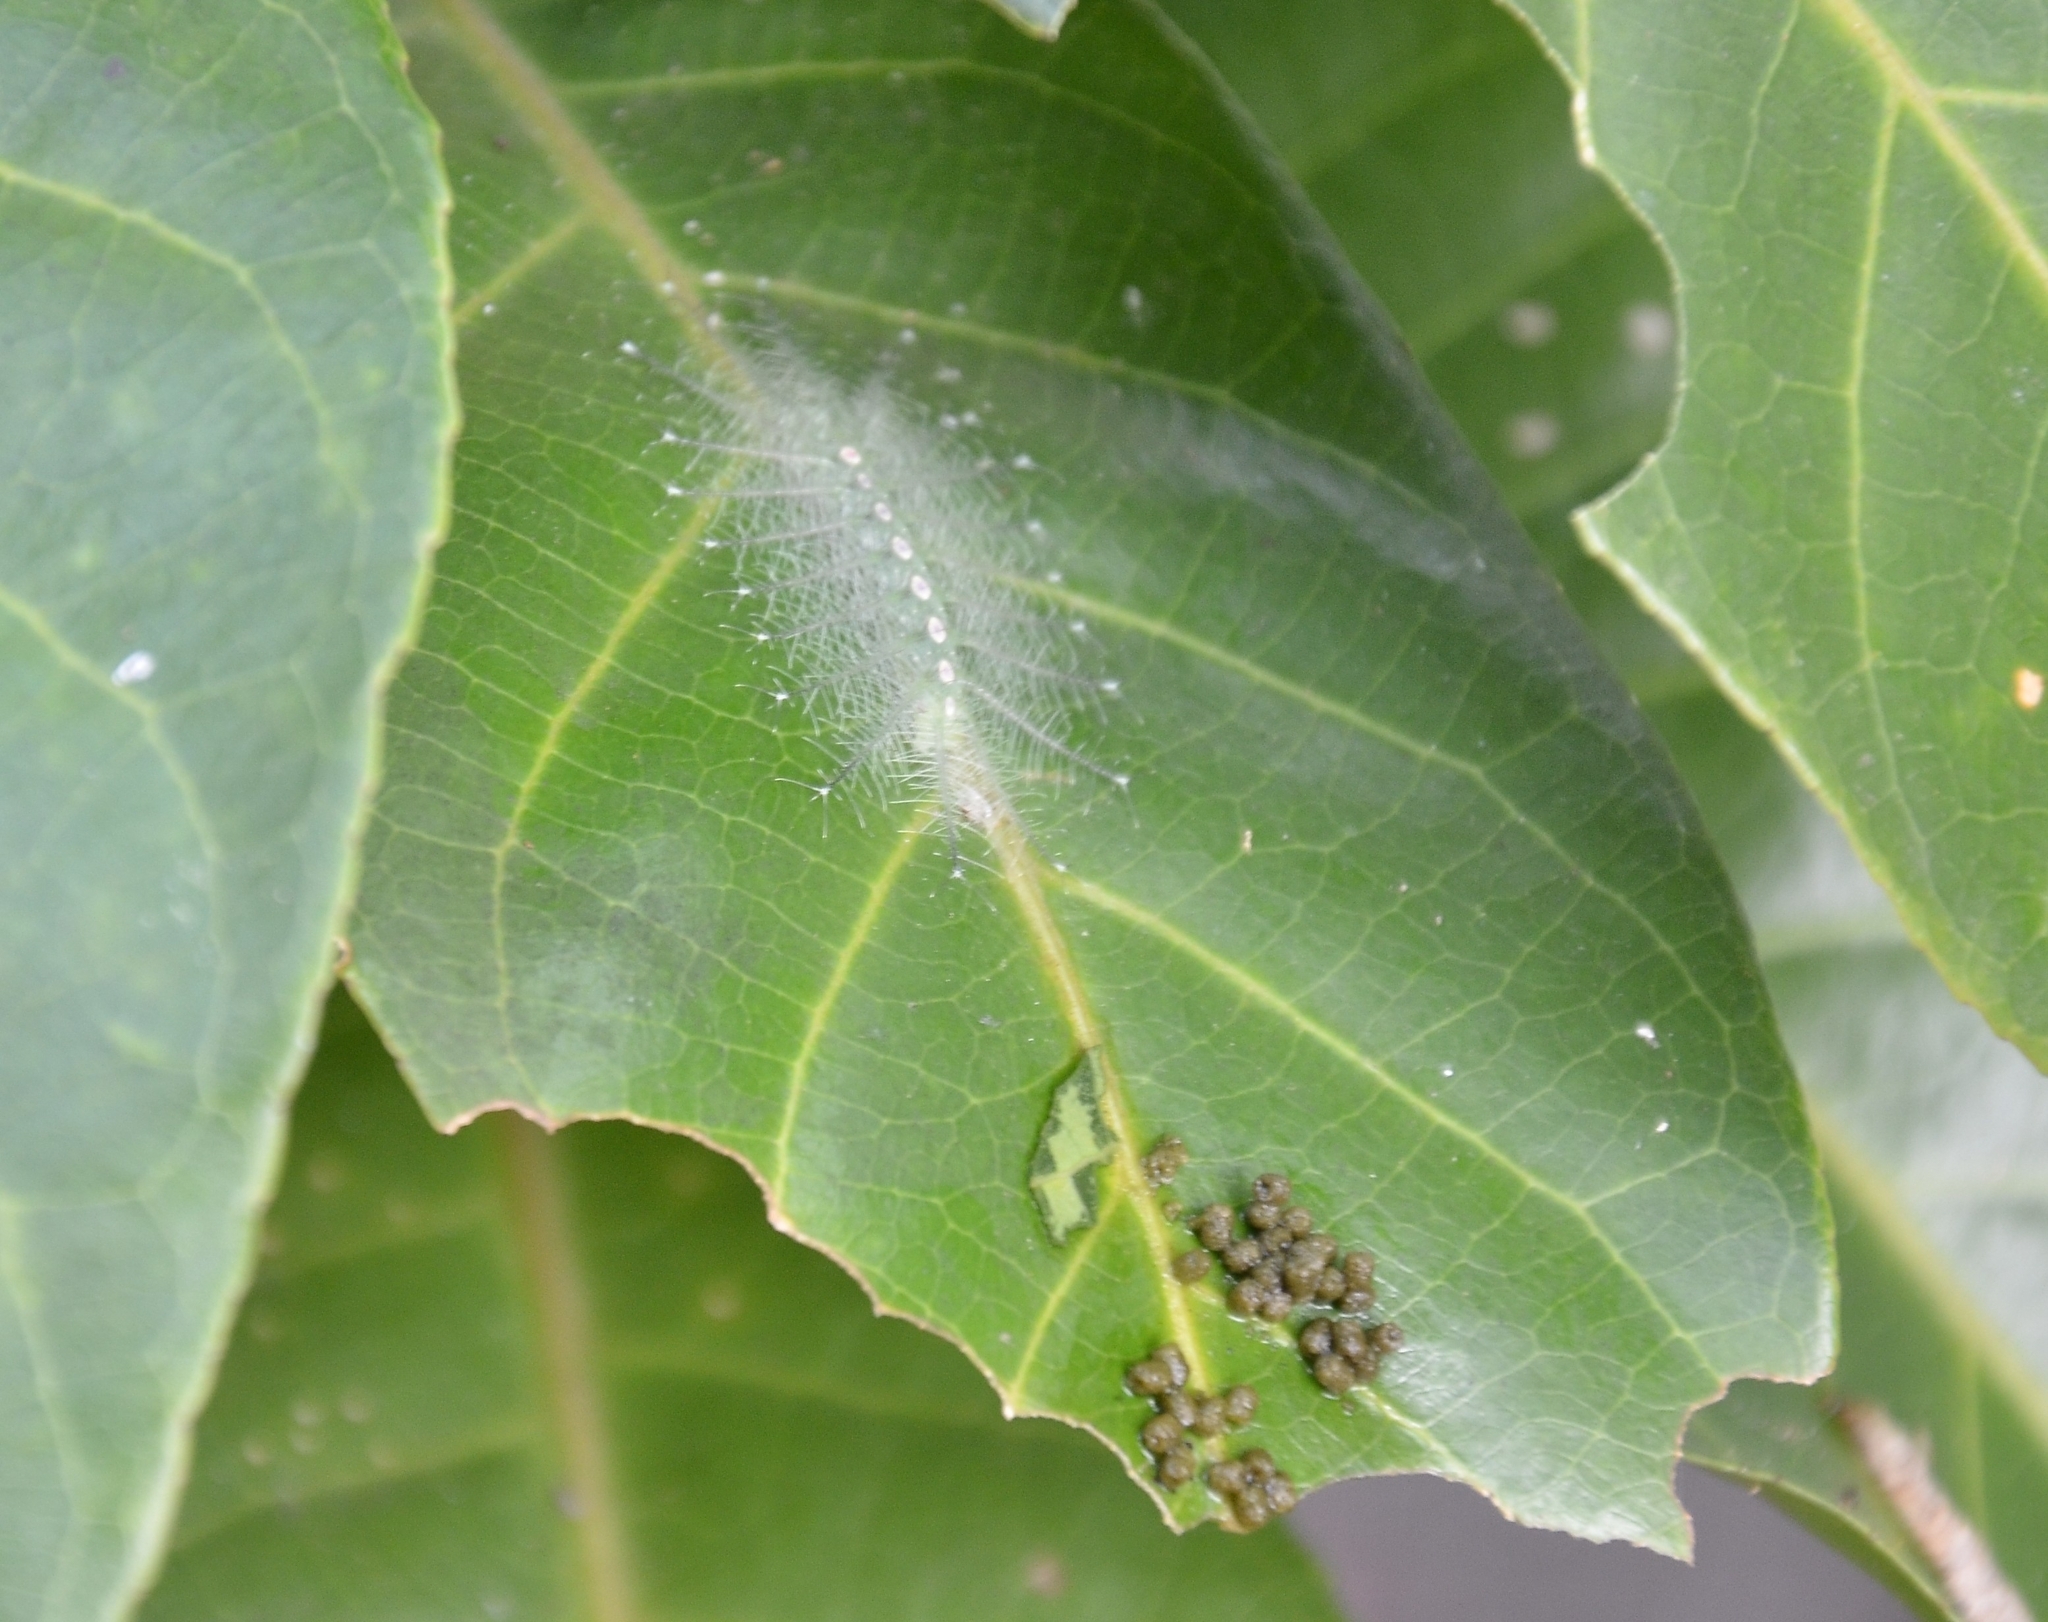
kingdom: Animalia
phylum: Arthropoda
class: Insecta
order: Lepidoptera
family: Nymphalidae
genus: Tanaecia
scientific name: Tanaecia lepidea
